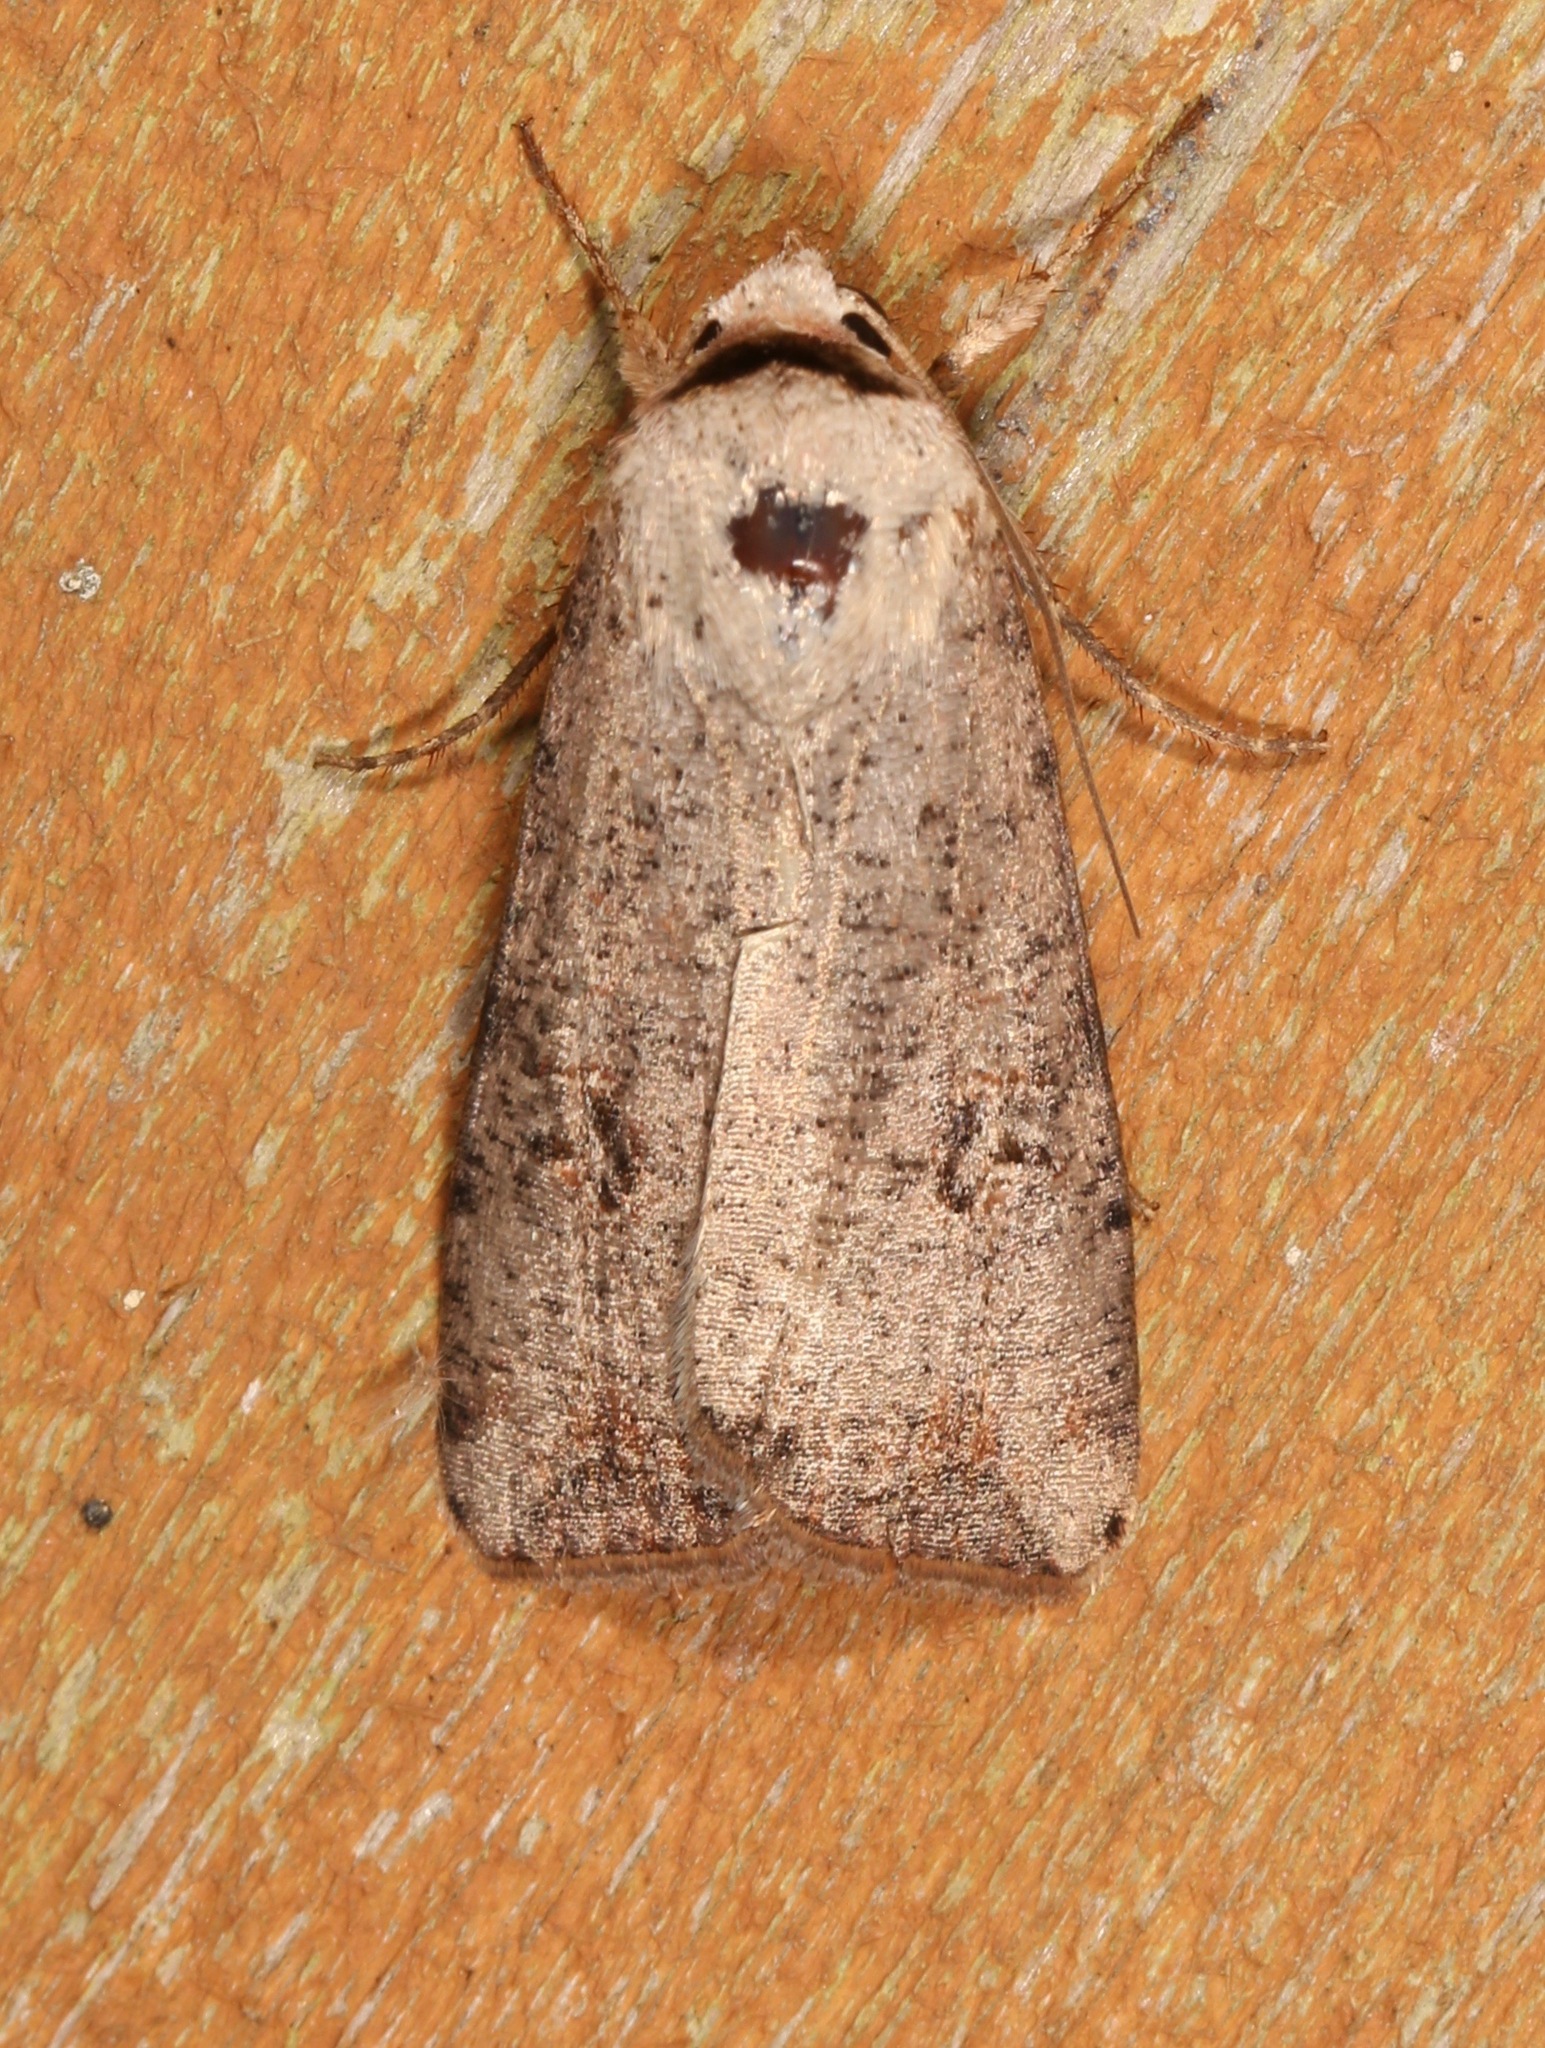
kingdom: Animalia
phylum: Arthropoda
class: Insecta
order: Lepidoptera
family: Noctuidae
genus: Anicla
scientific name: Anicla infecta
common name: Green cutworm
